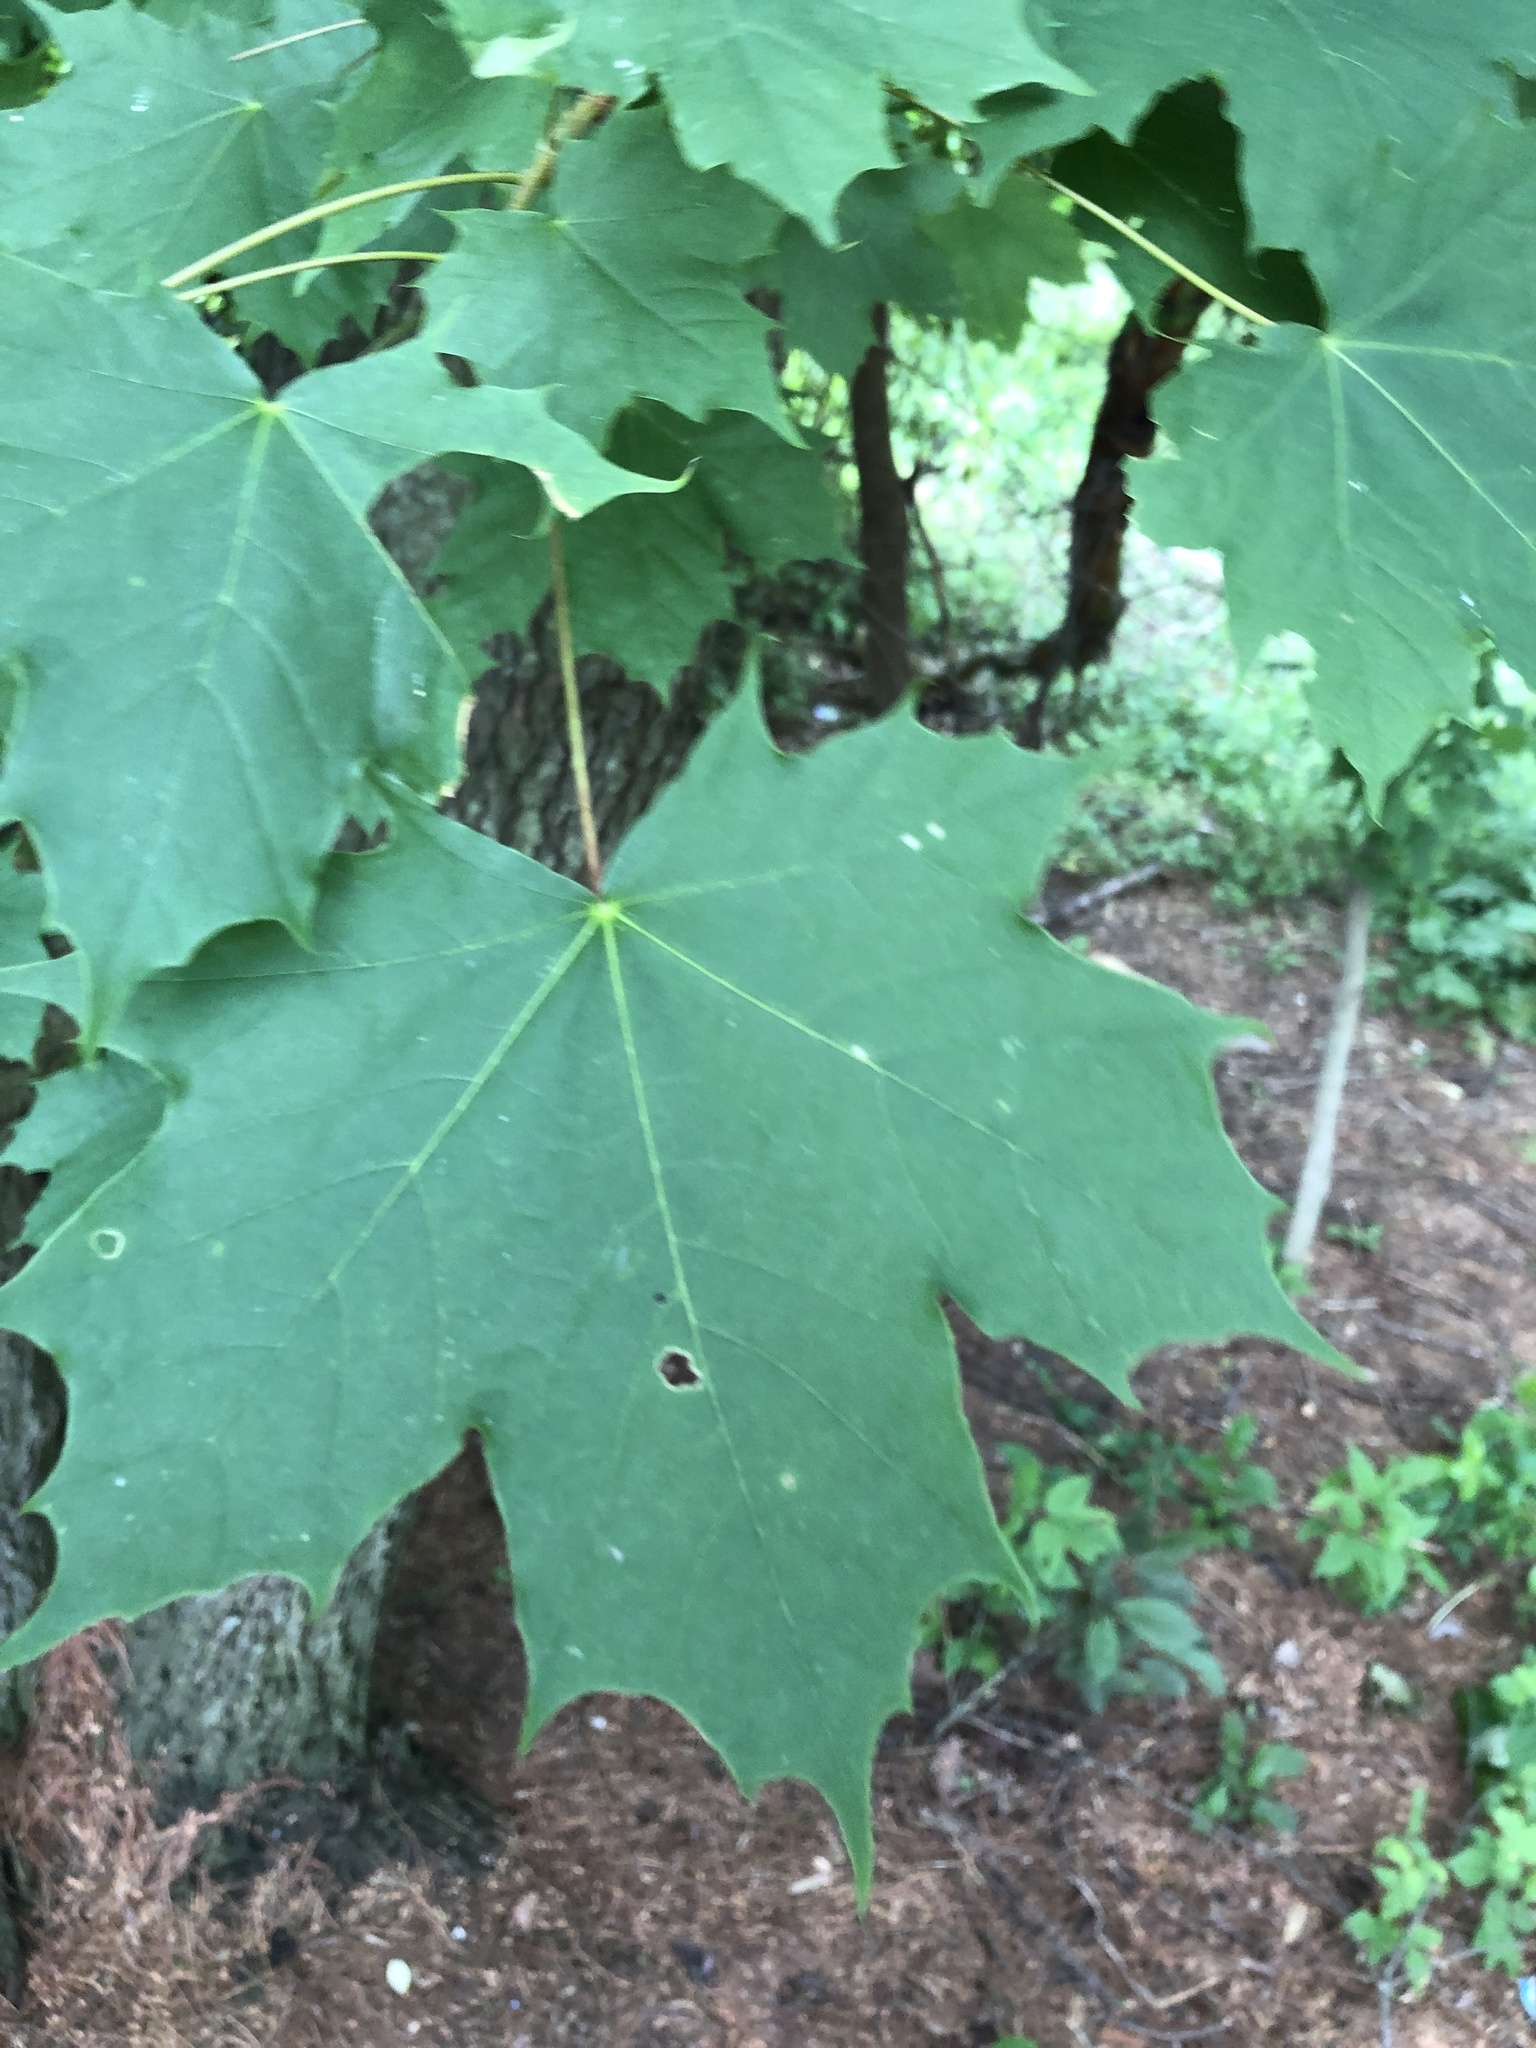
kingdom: Plantae
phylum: Tracheophyta
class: Magnoliopsida
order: Sapindales
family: Sapindaceae
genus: Acer
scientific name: Acer platanoides
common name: Norway maple
